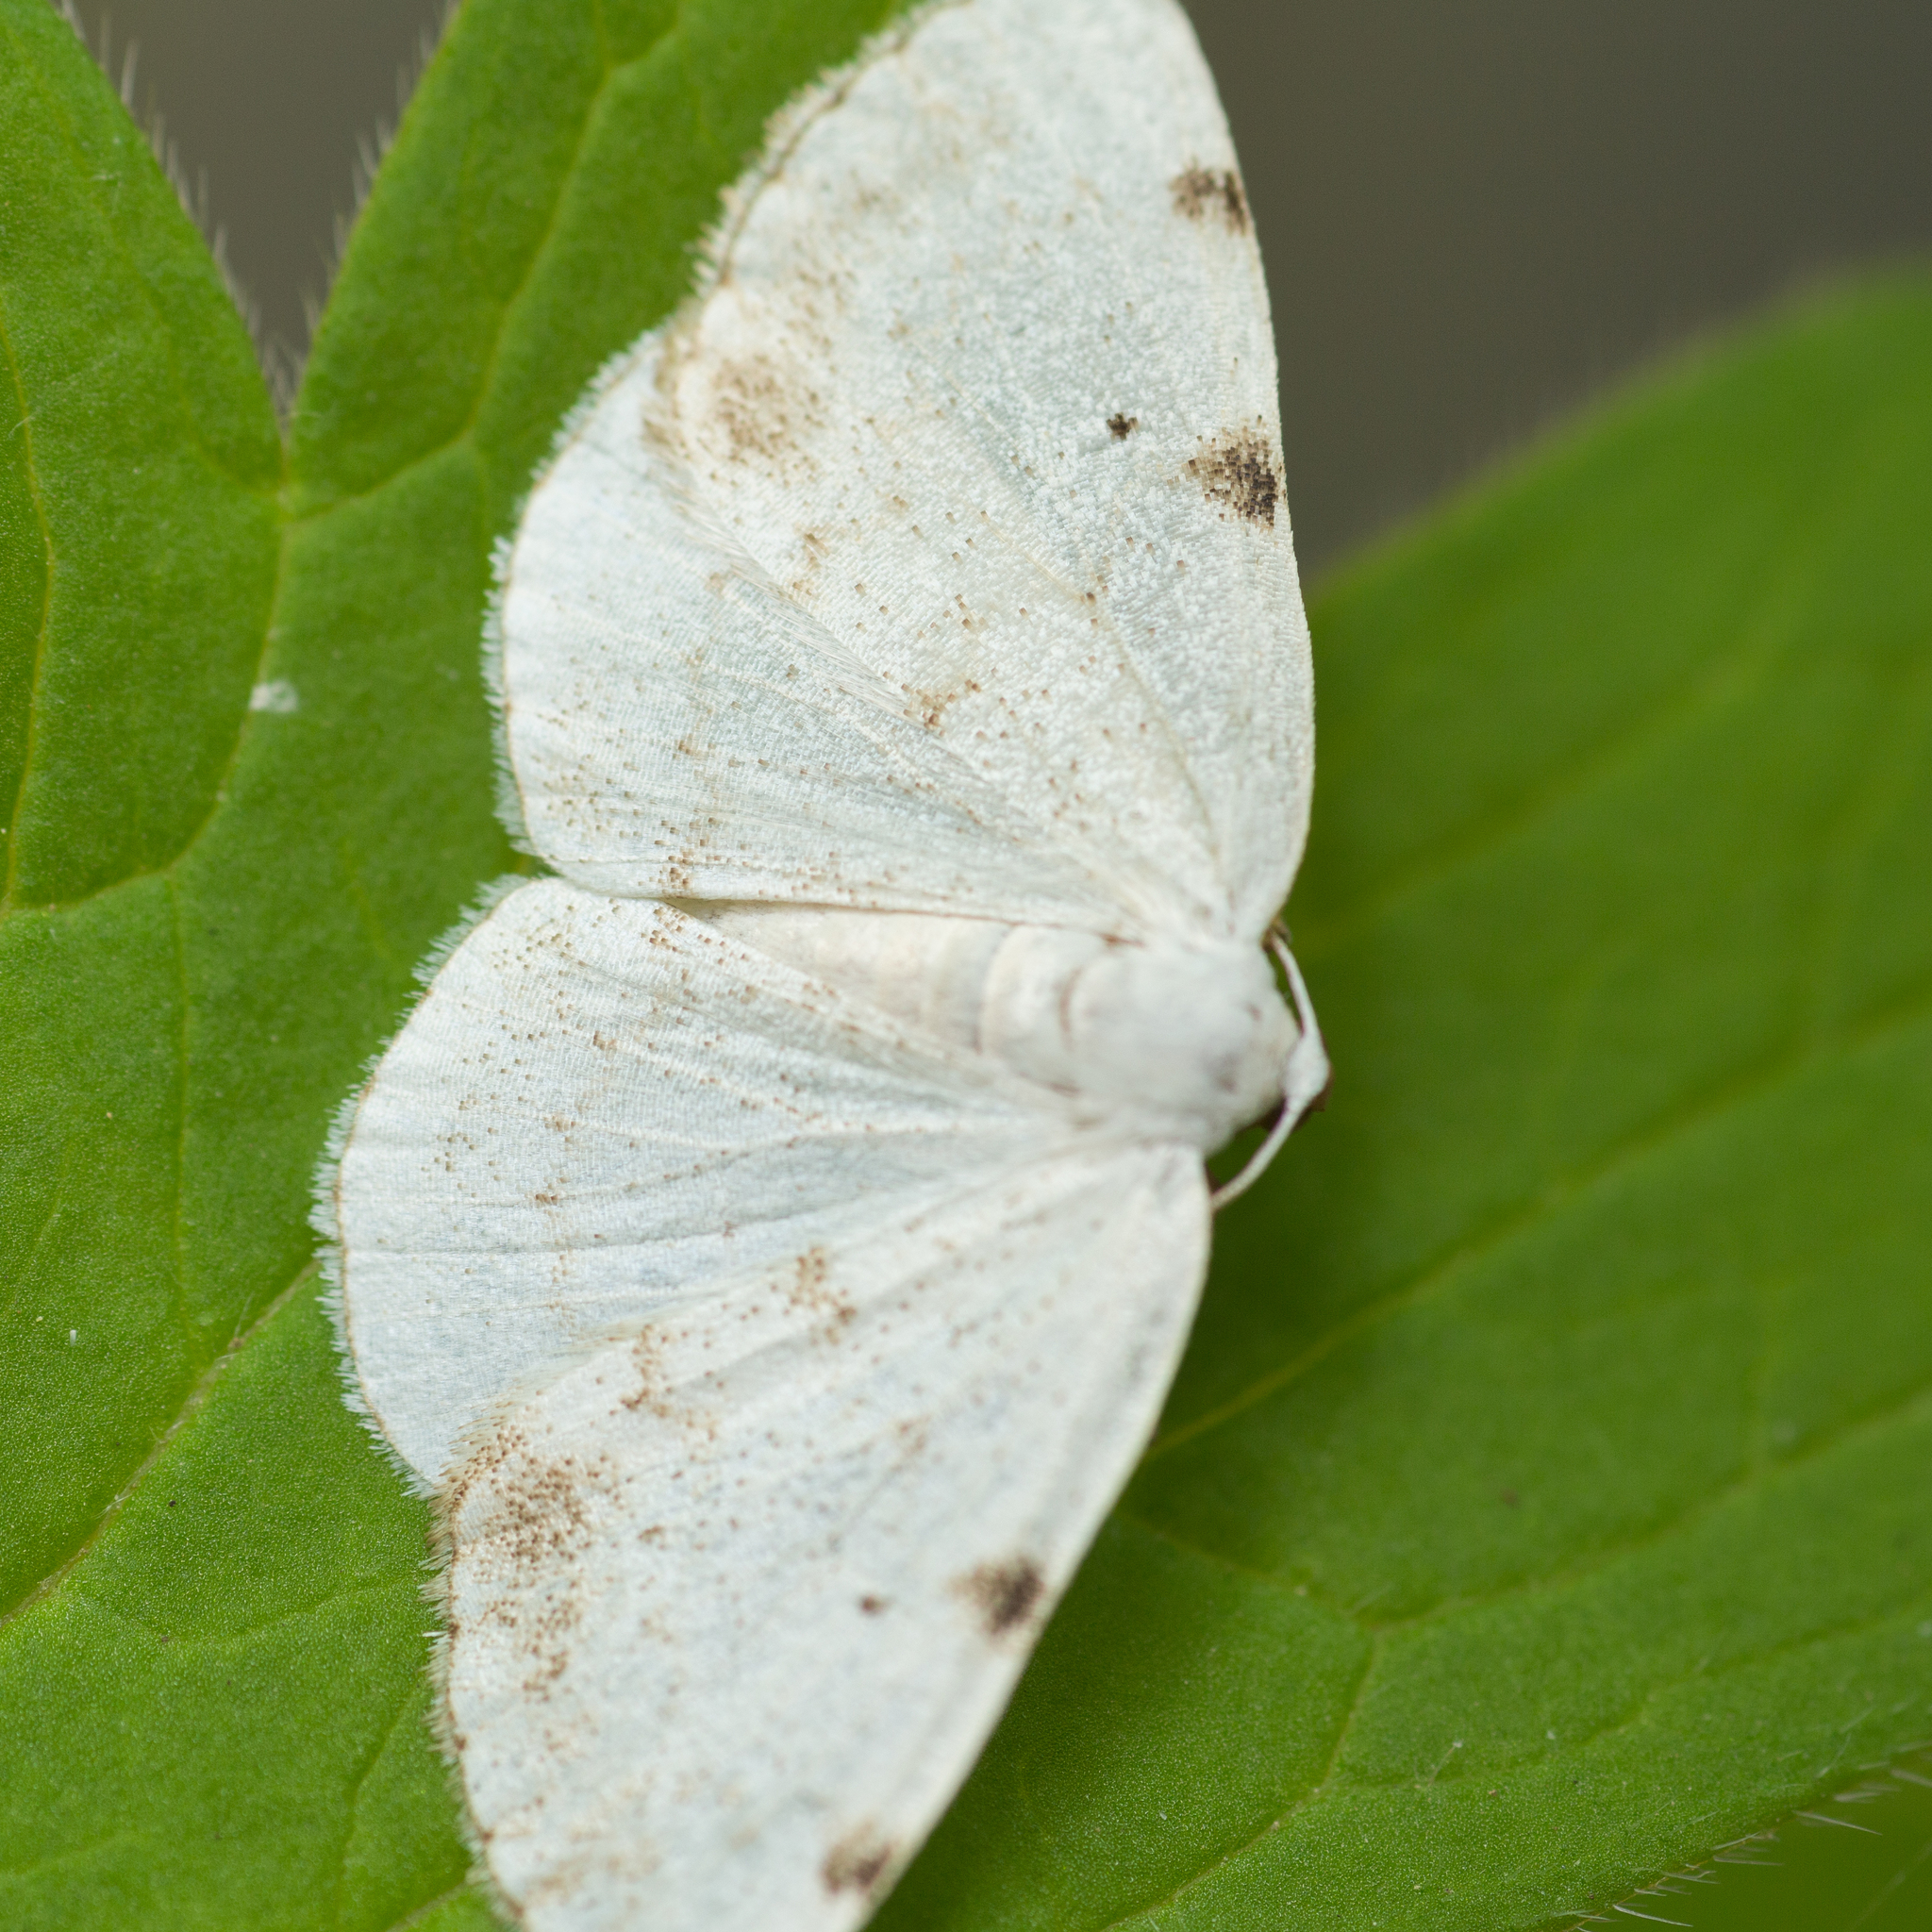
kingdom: Animalia
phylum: Arthropoda
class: Insecta
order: Lepidoptera
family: Geometridae
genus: Lomographa
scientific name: Lomographa bimaculata
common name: White-pinion spotted
